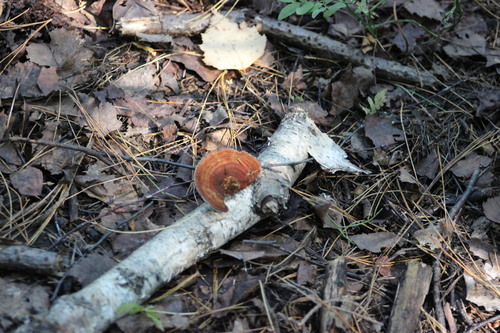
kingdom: Fungi
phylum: Basidiomycota
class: Agaricomycetes
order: Polyporales
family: Polyporaceae
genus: Daedaleopsis
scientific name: Daedaleopsis septentrionalis
